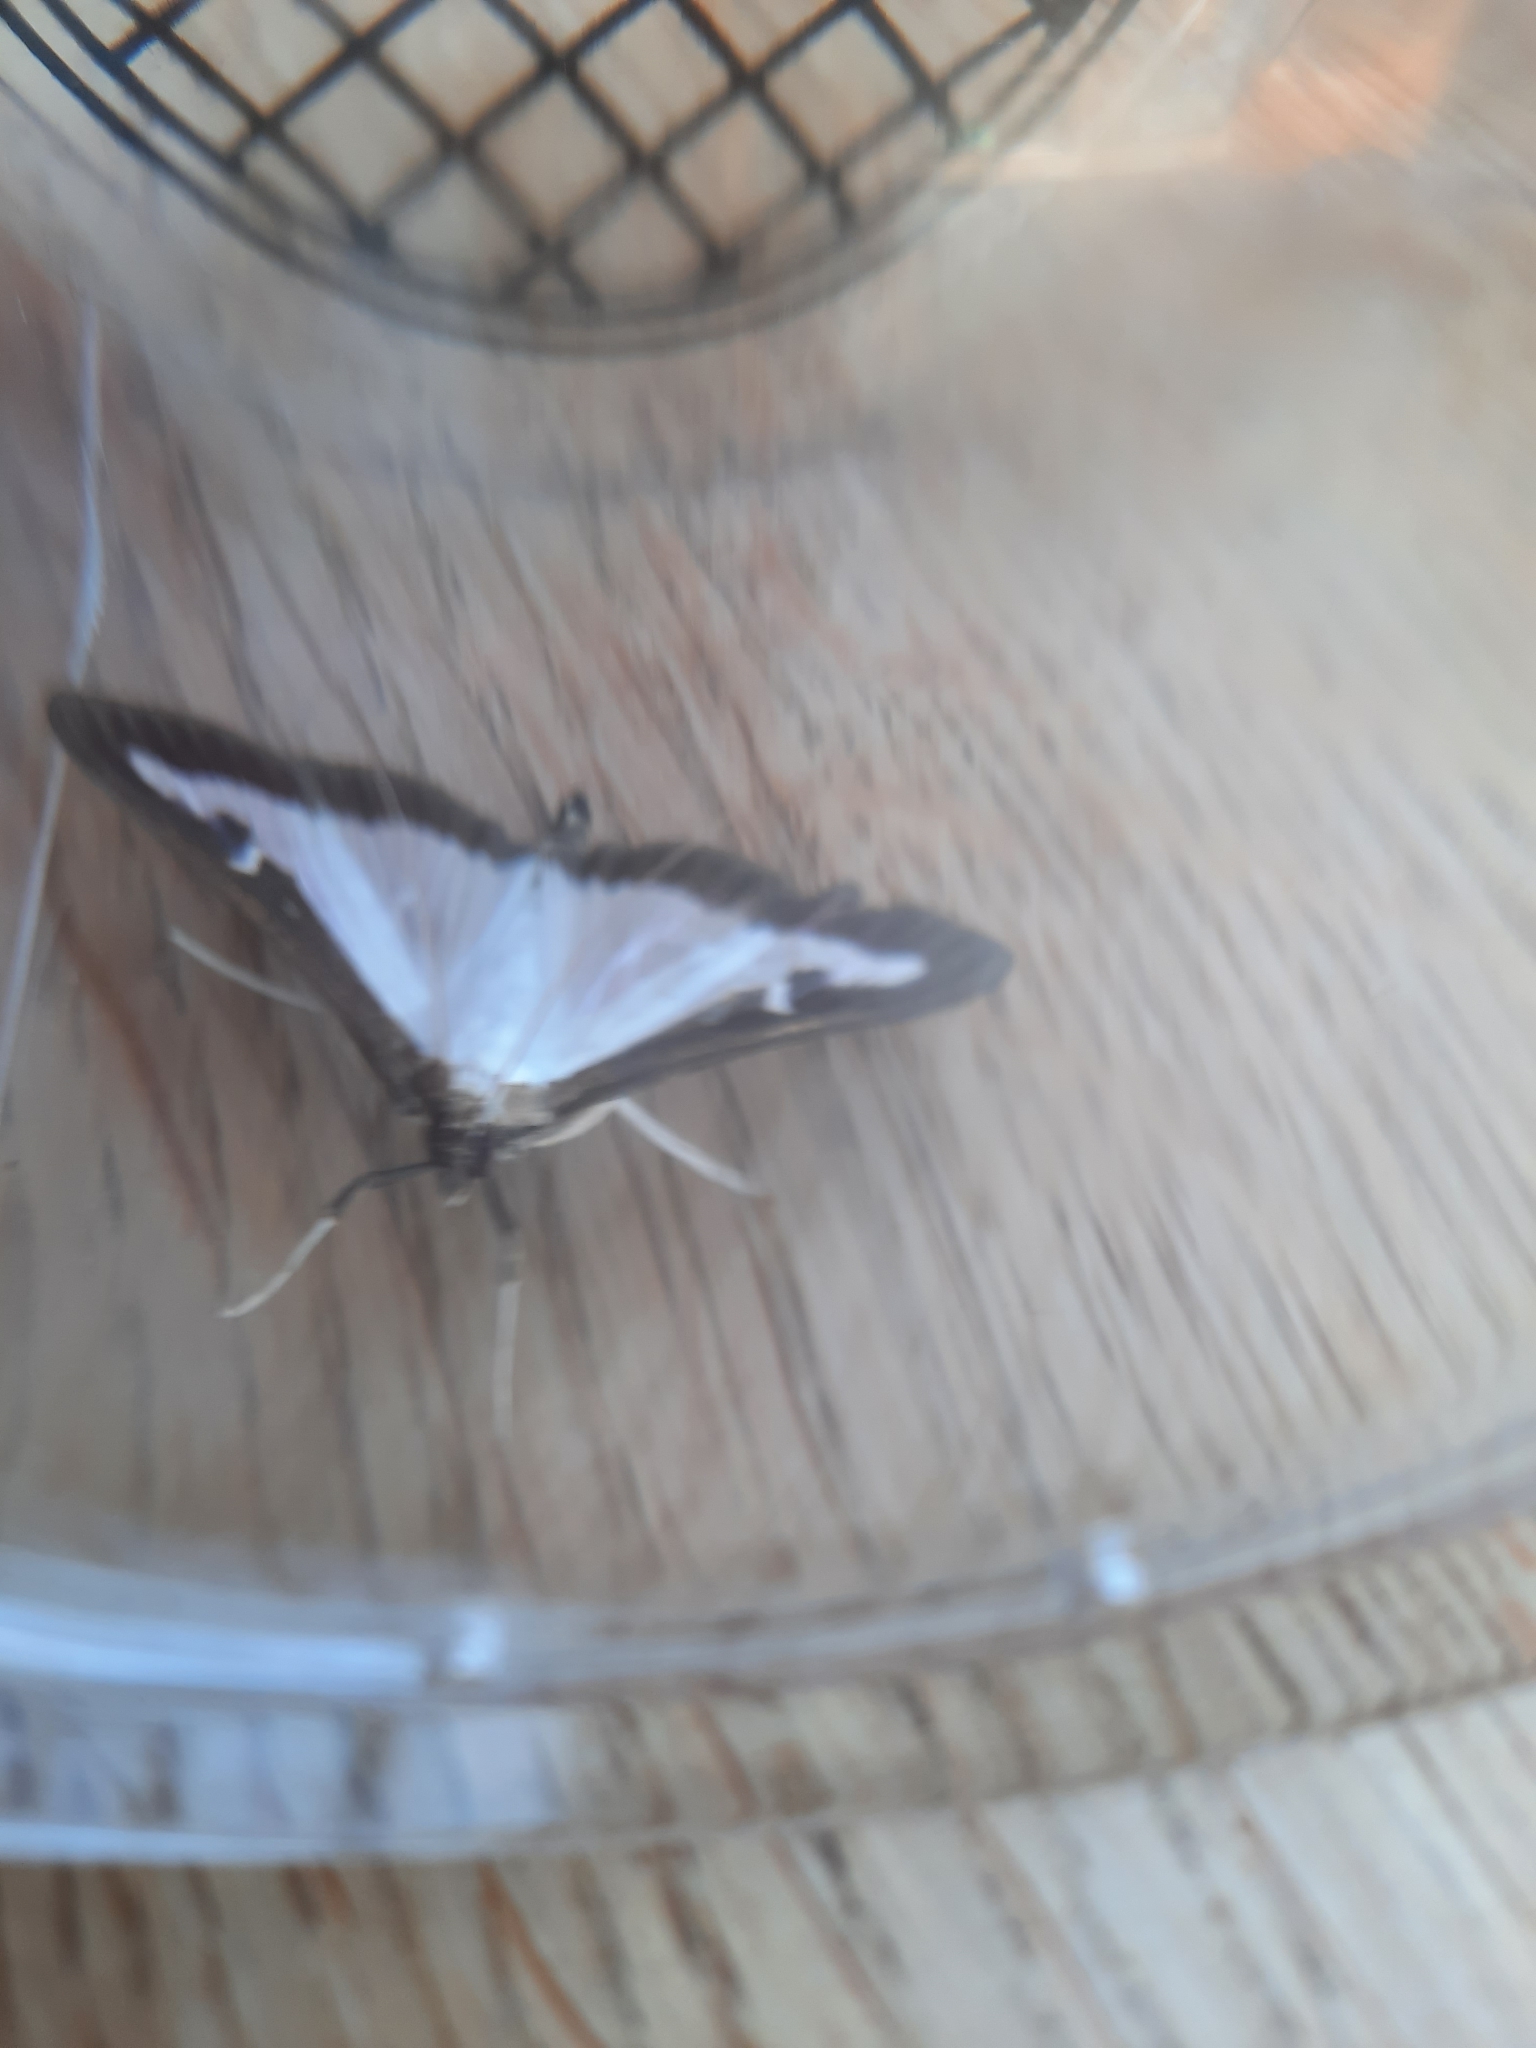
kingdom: Animalia
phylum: Arthropoda
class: Insecta
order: Lepidoptera
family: Crambidae
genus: Cydalima
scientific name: Cydalima perspectalis
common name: Box tree moth
